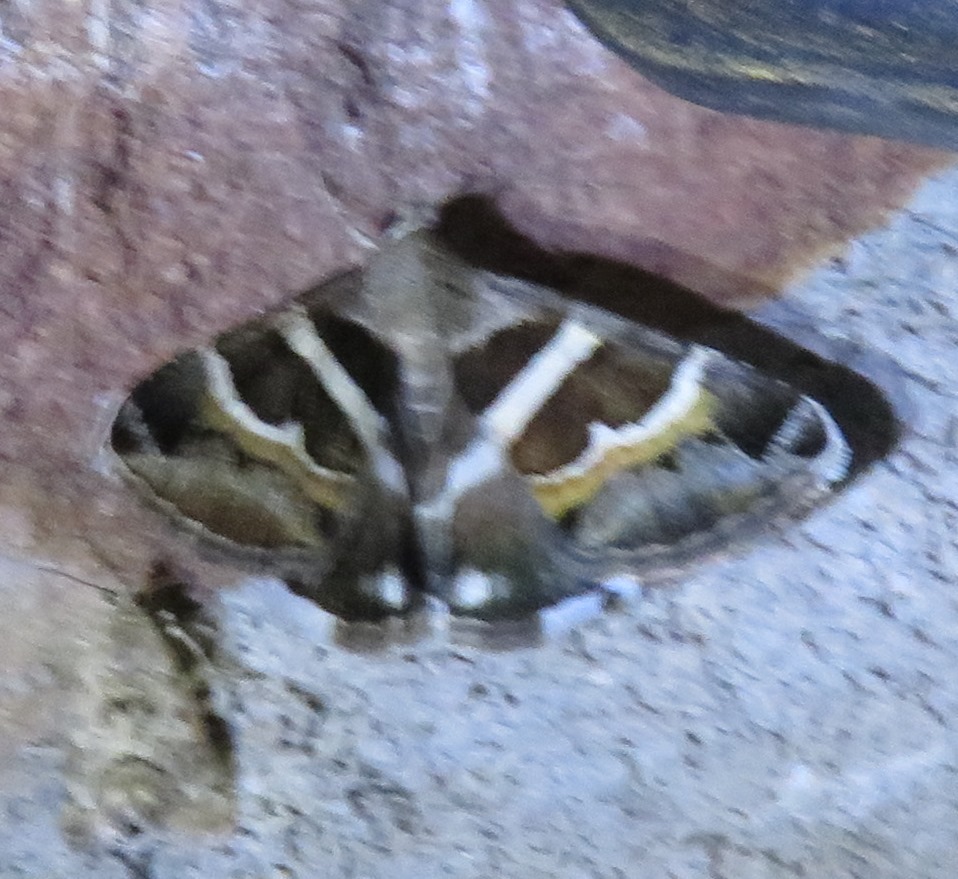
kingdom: Animalia
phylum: Arthropoda
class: Insecta
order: Lepidoptera
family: Erebidae
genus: Grammodes
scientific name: Grammodes stolida
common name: Geometrician
